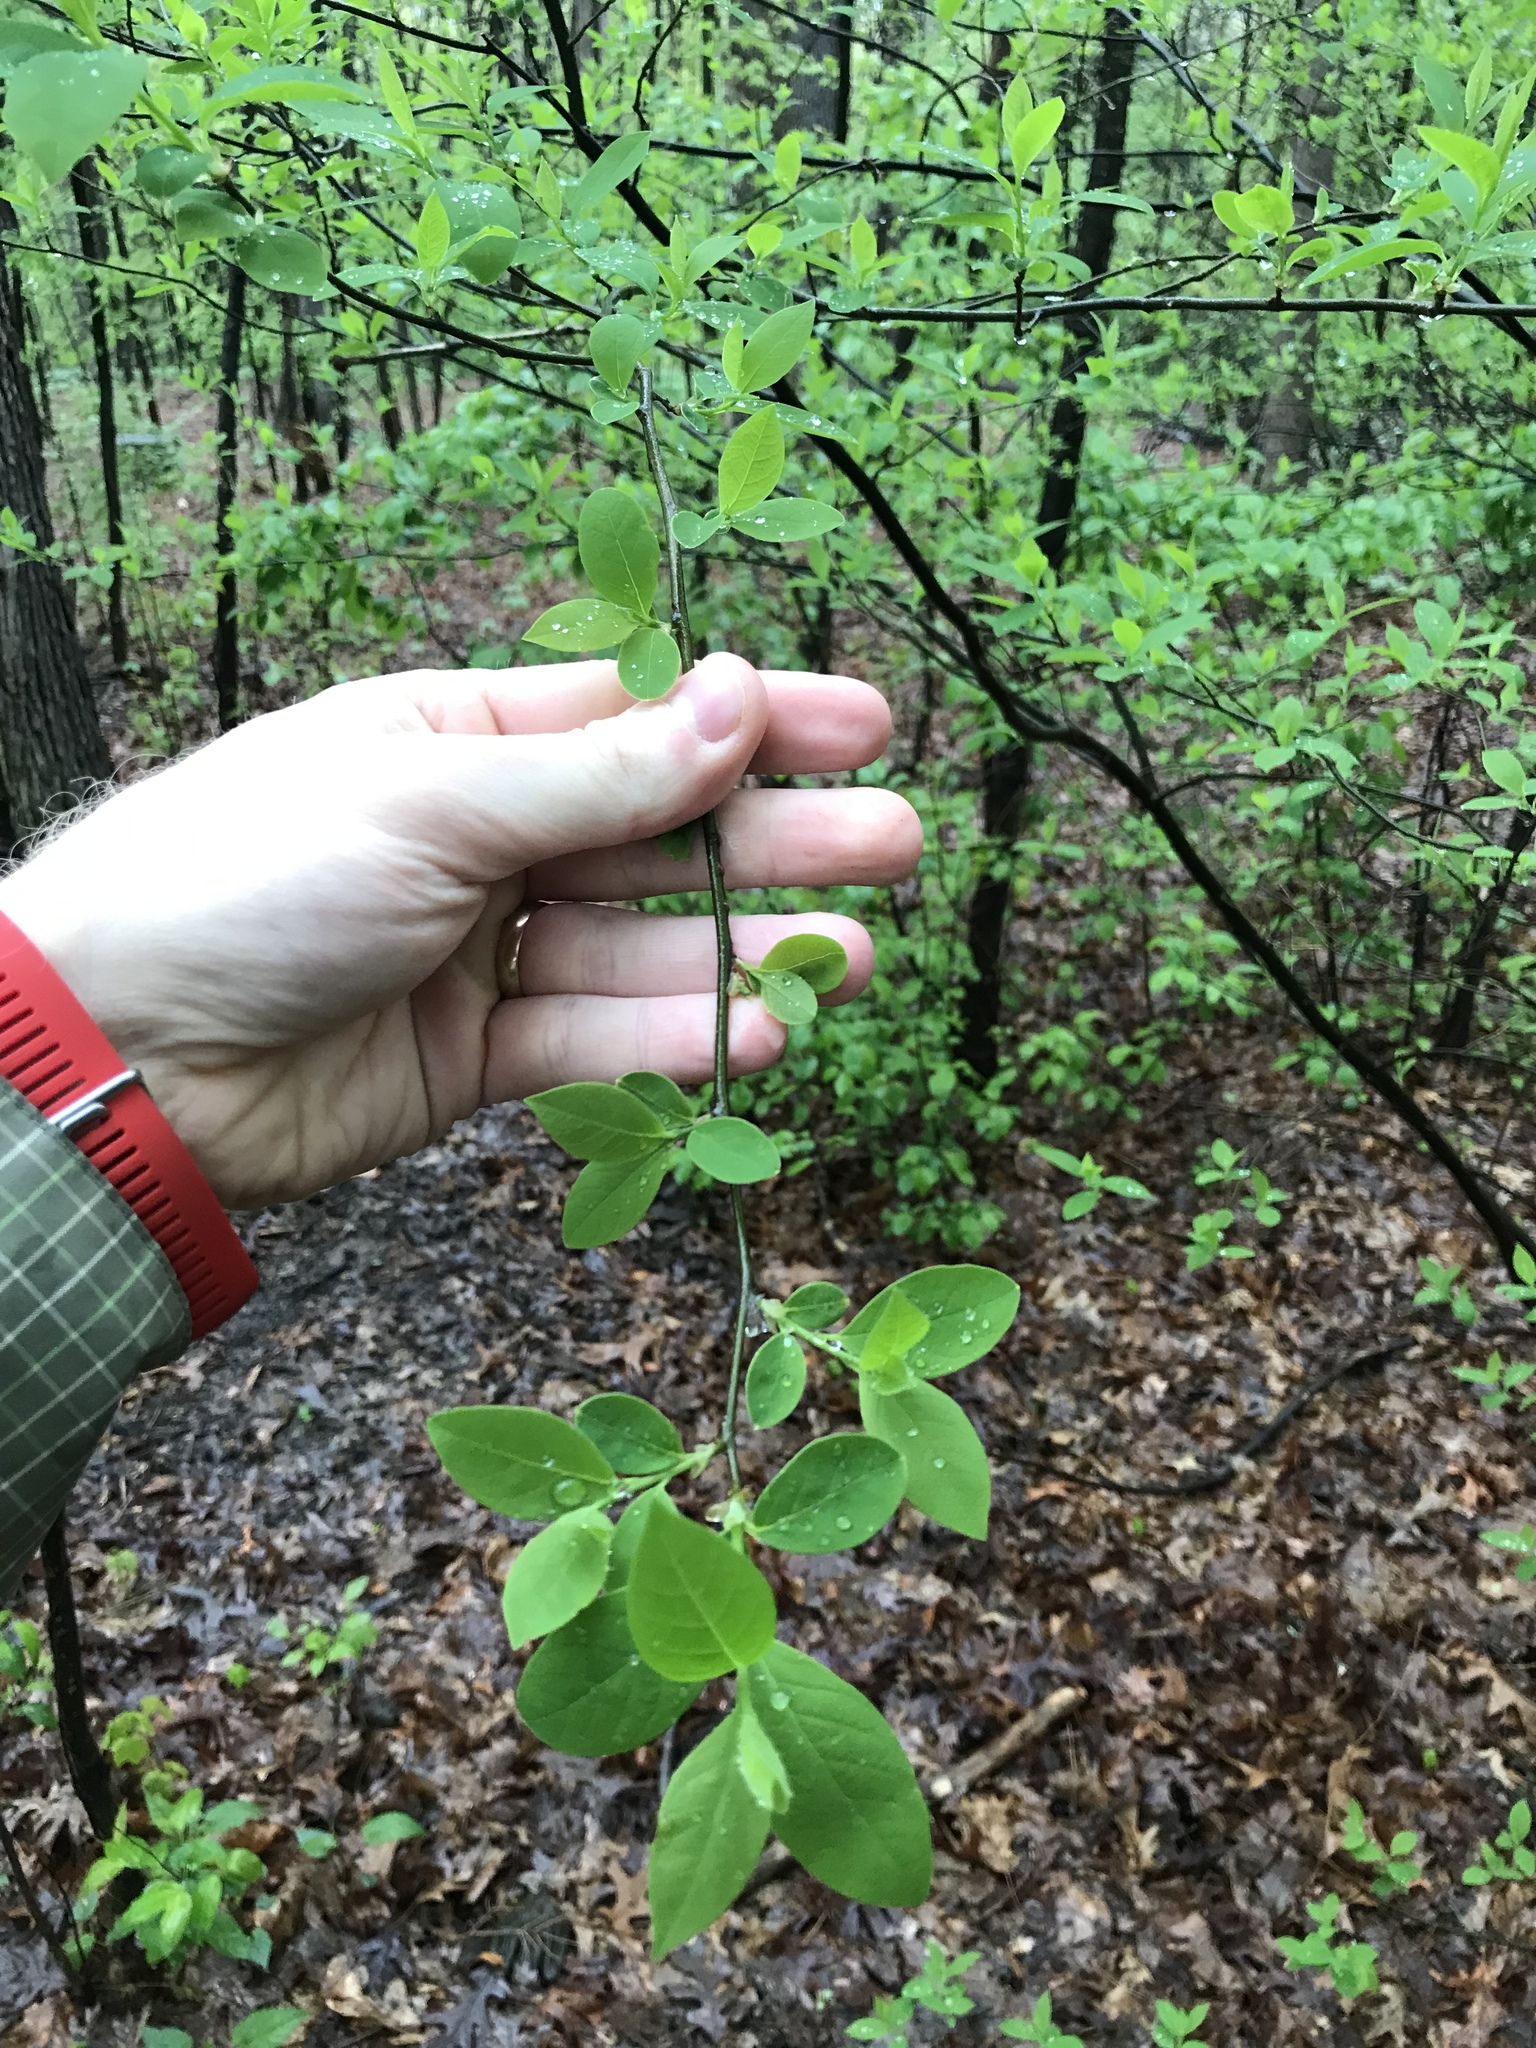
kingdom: Plantae
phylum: Tracheophyta
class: Magnoliopsida
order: Laurales
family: Lauraceae
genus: Lindera
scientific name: Lindera benzoin
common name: Spicebush
